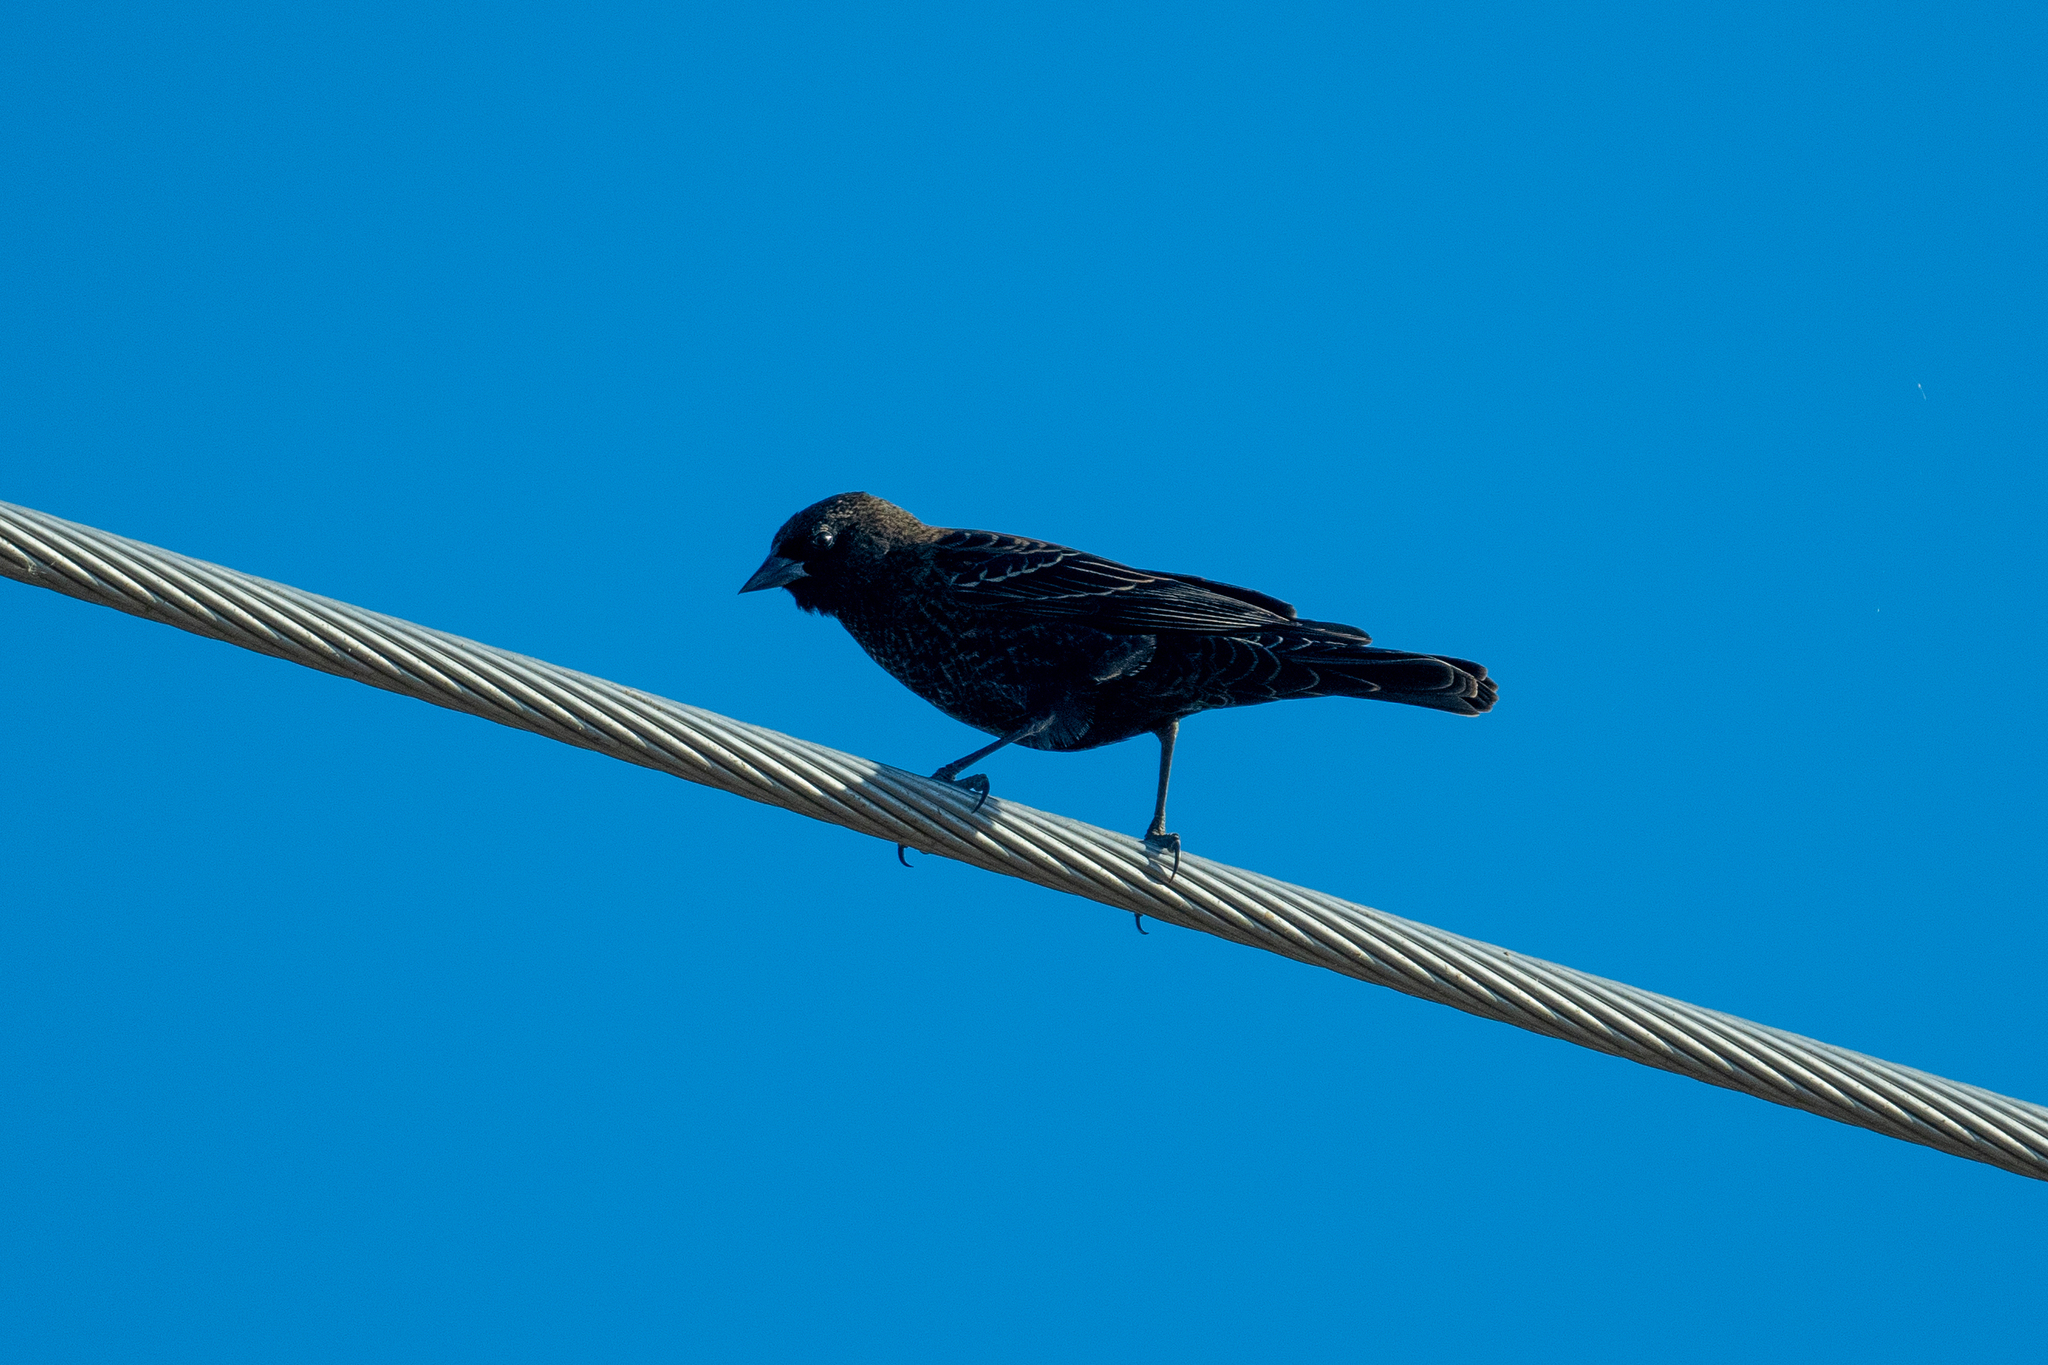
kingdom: Animalia
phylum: Chordata
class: Aves
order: Passeriformes
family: Icteridae
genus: Euphagus
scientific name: Euphagus cyanocephalus
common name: Brewer's blackbird
